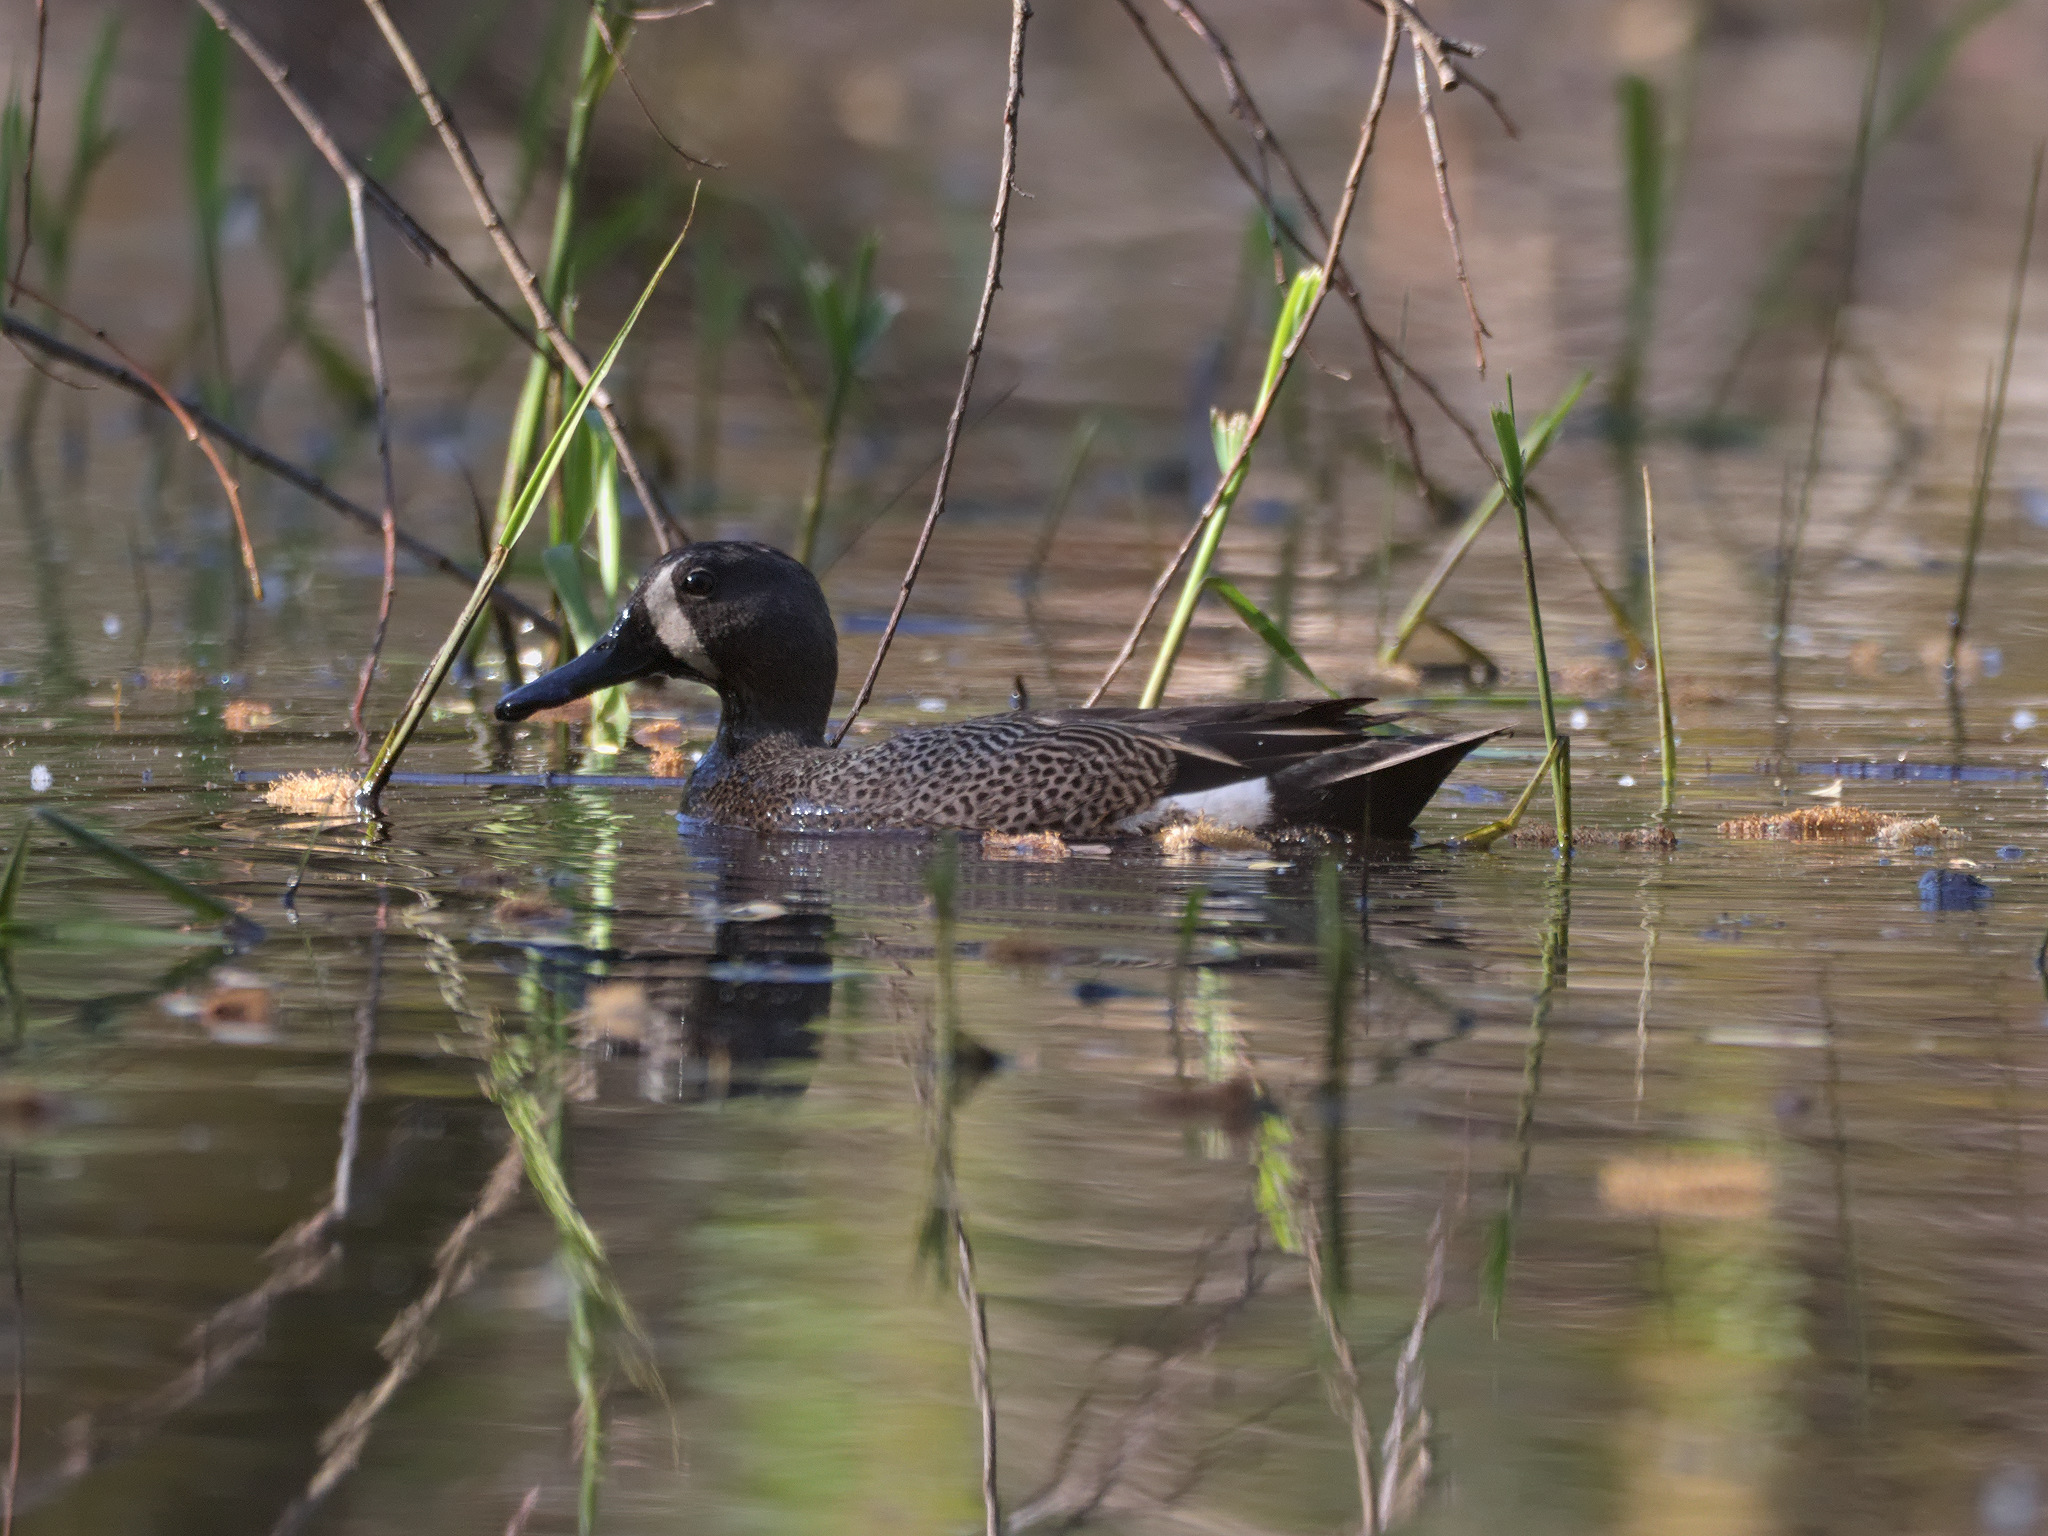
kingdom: Animalia
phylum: Chordata
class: Aves
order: Anseriformes
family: Anatidae
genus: Spatula
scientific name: Spatula discors
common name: Blue-winged teal
